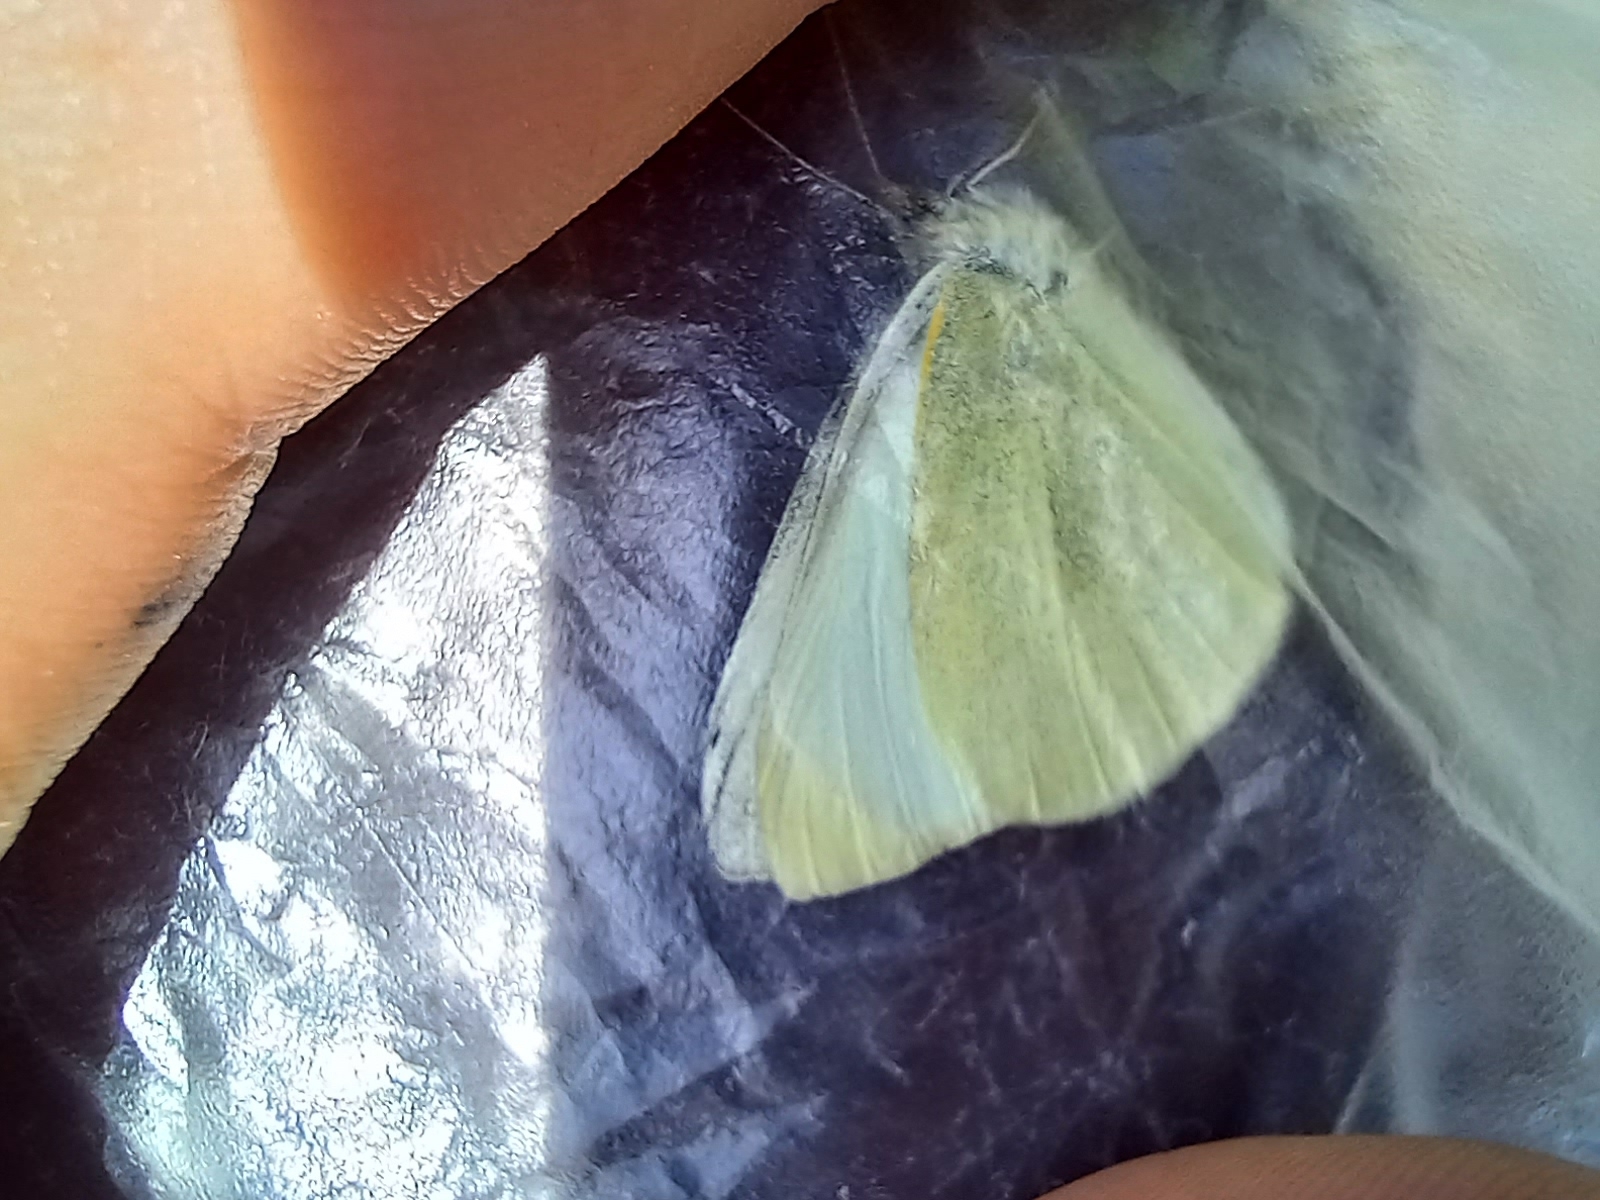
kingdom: Animalia
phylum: Arthropoda
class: Insecta
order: Lepidoptera
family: Pieridae
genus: Pieris
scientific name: Pieris rapae
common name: Small white
